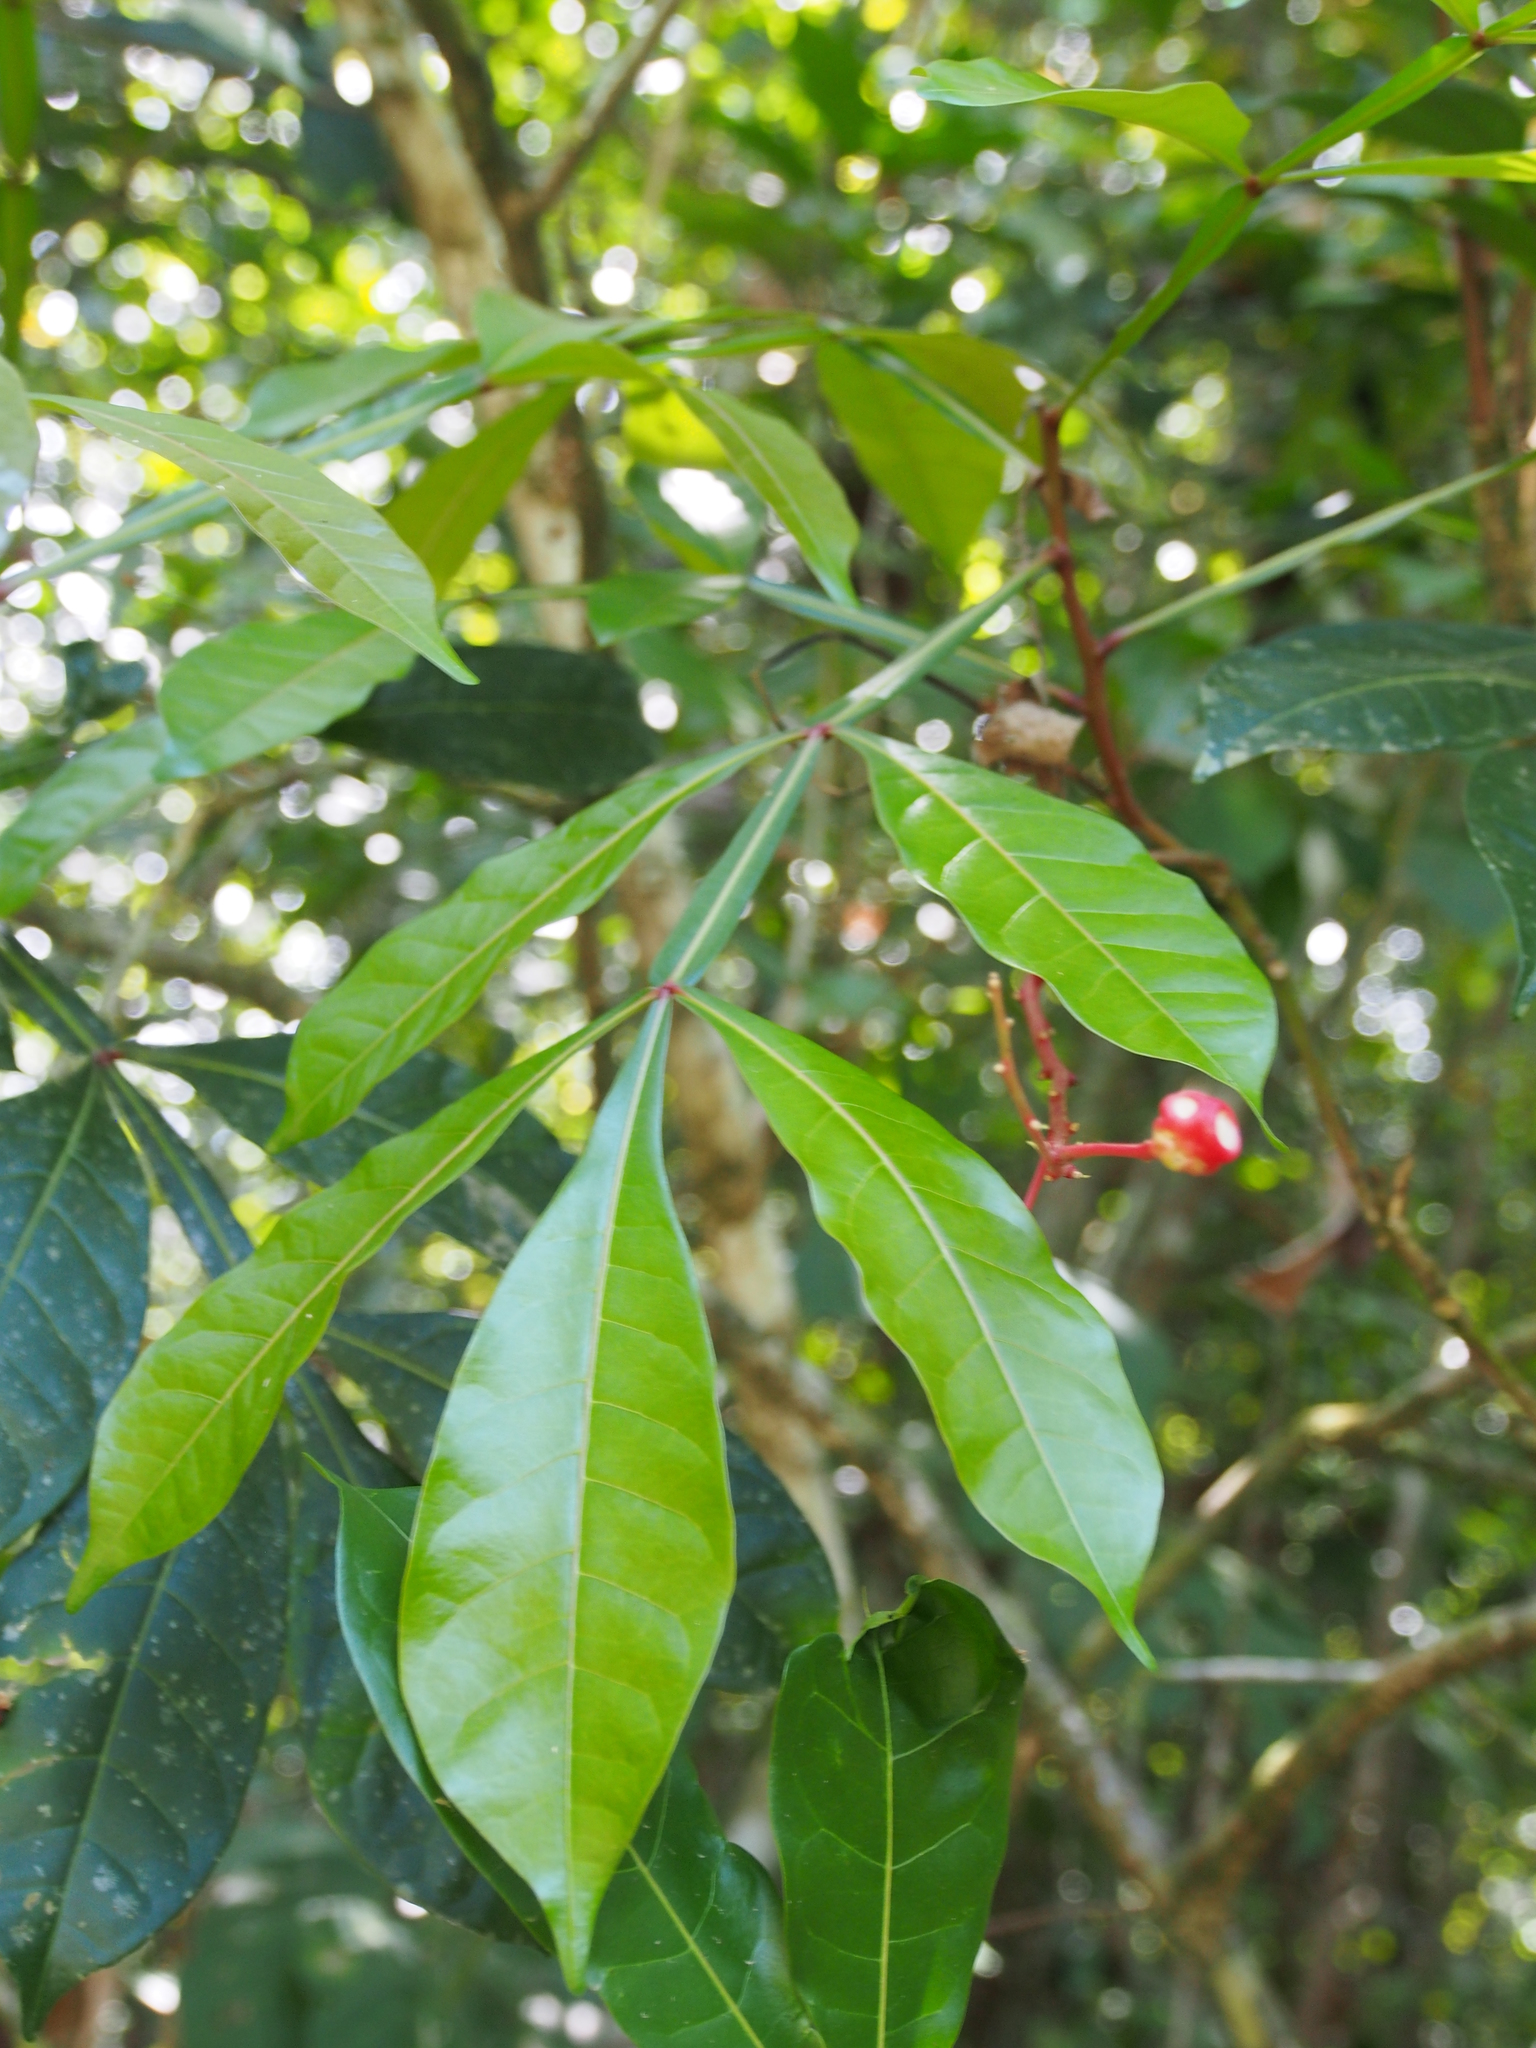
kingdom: Plantae
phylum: Tracheophyta
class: Magnoliopsida
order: Sapindales
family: Simaroubaceae
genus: Quassia
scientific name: Quassia amara
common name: Quassia
